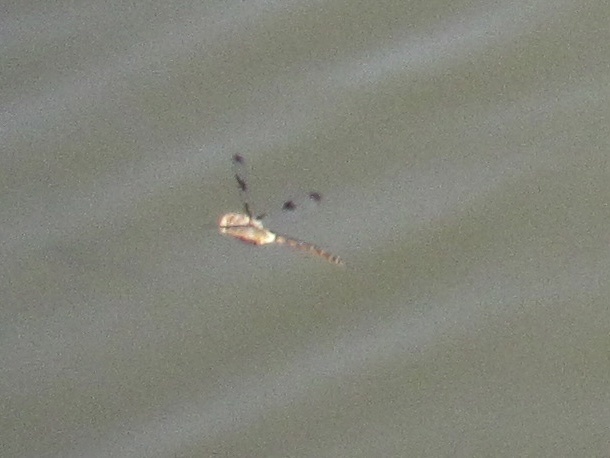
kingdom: Animalia
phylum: Arthropoda
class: Insecta
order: Odonata
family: Corduliidae
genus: Epitheca
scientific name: Epitheca princeps
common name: Prince baskettail
